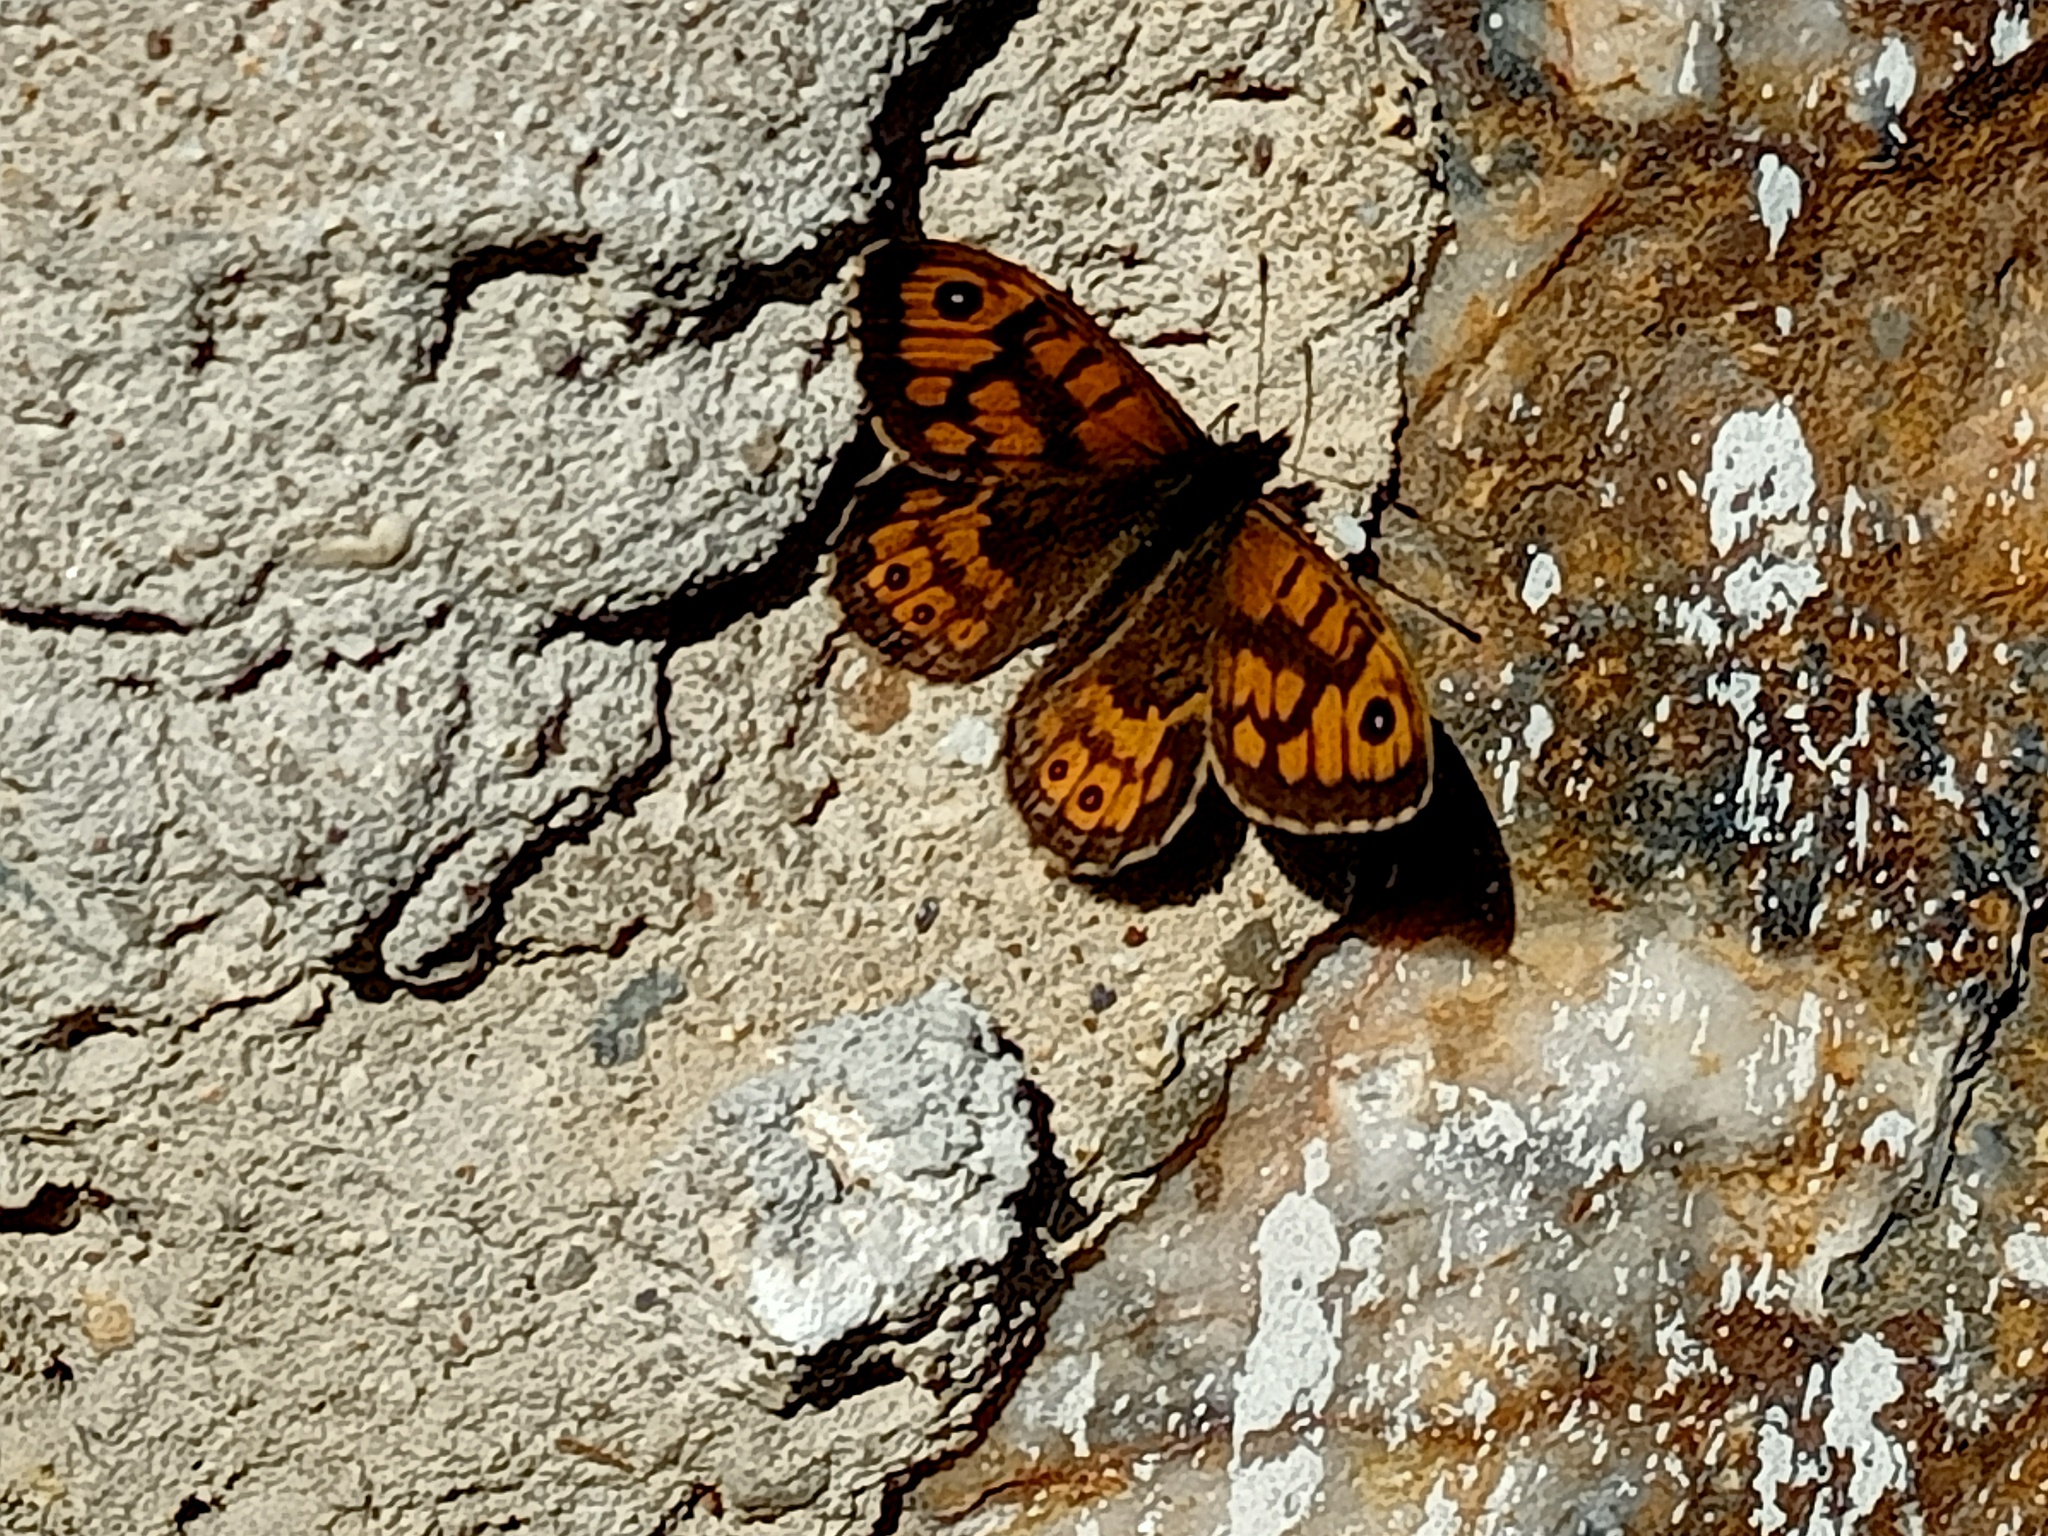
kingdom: Animalia
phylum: Arthropoda
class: Insecta
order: Lepidoptera
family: Nymphalidae
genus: Pararge
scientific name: Pararge Lasiommata megera
